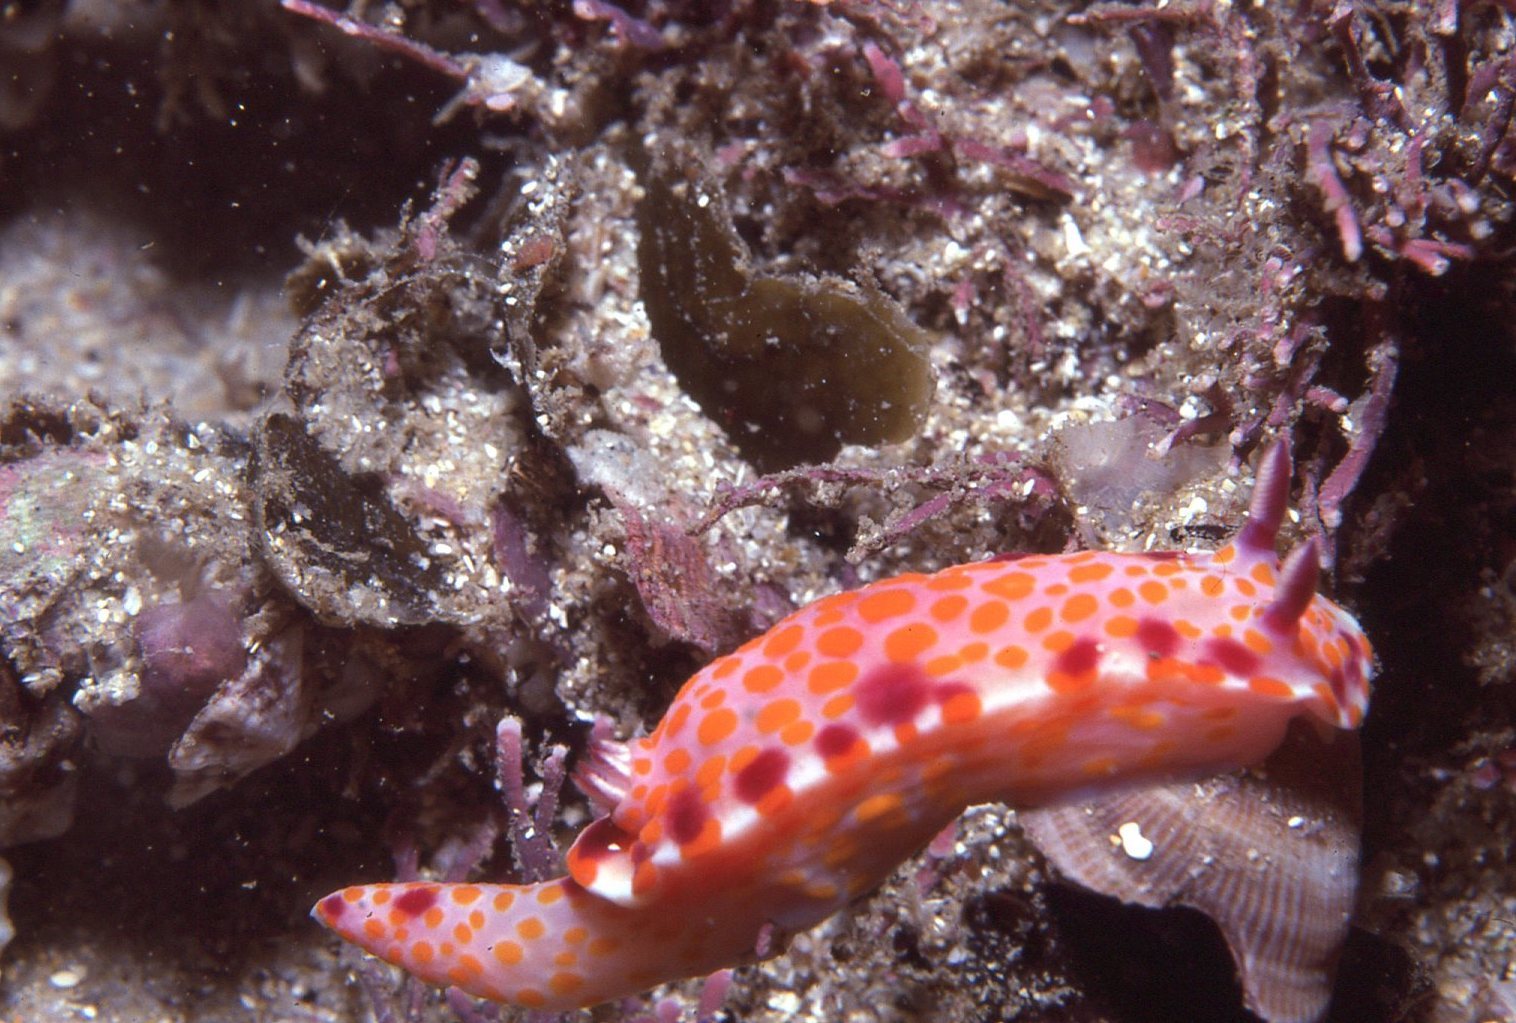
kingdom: Animalia
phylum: Mollusca
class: Gastropoda
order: Nudibranchia
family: Chromodorididae
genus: Ceratosoma
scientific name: Ceratosoma amoenum
